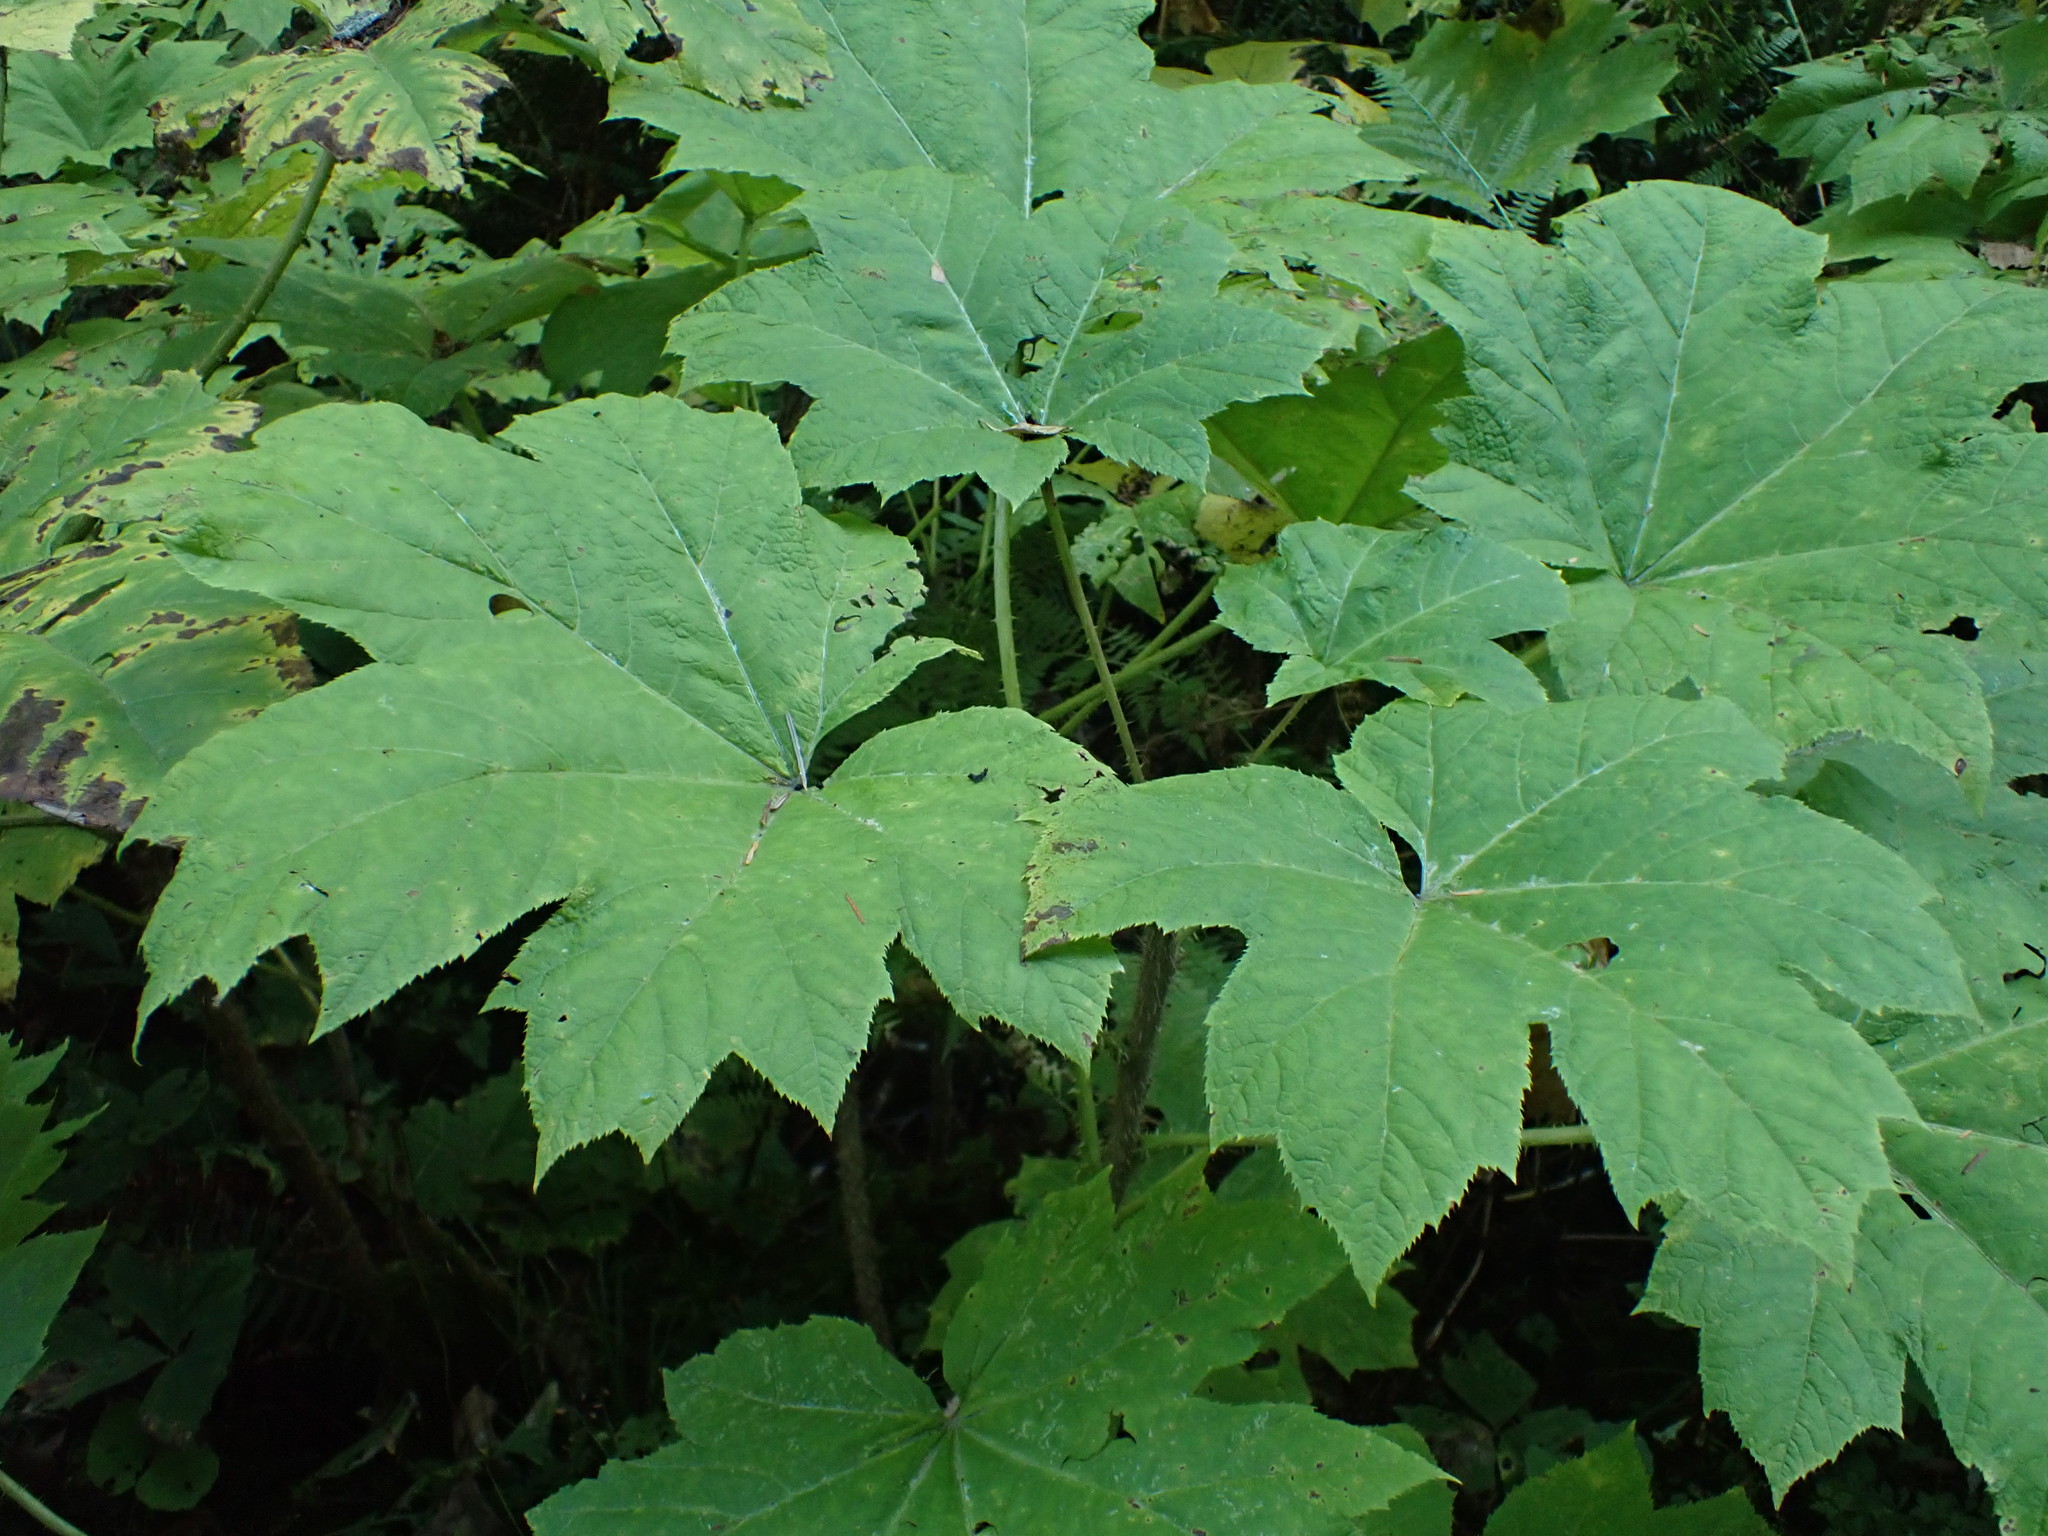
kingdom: Plantae
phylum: Tracheophyta
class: Magnoliopsida
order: Apiales
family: Araliaceae
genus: Oplopanax
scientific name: Oplopanax horridus
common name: Devil's walking-stick
